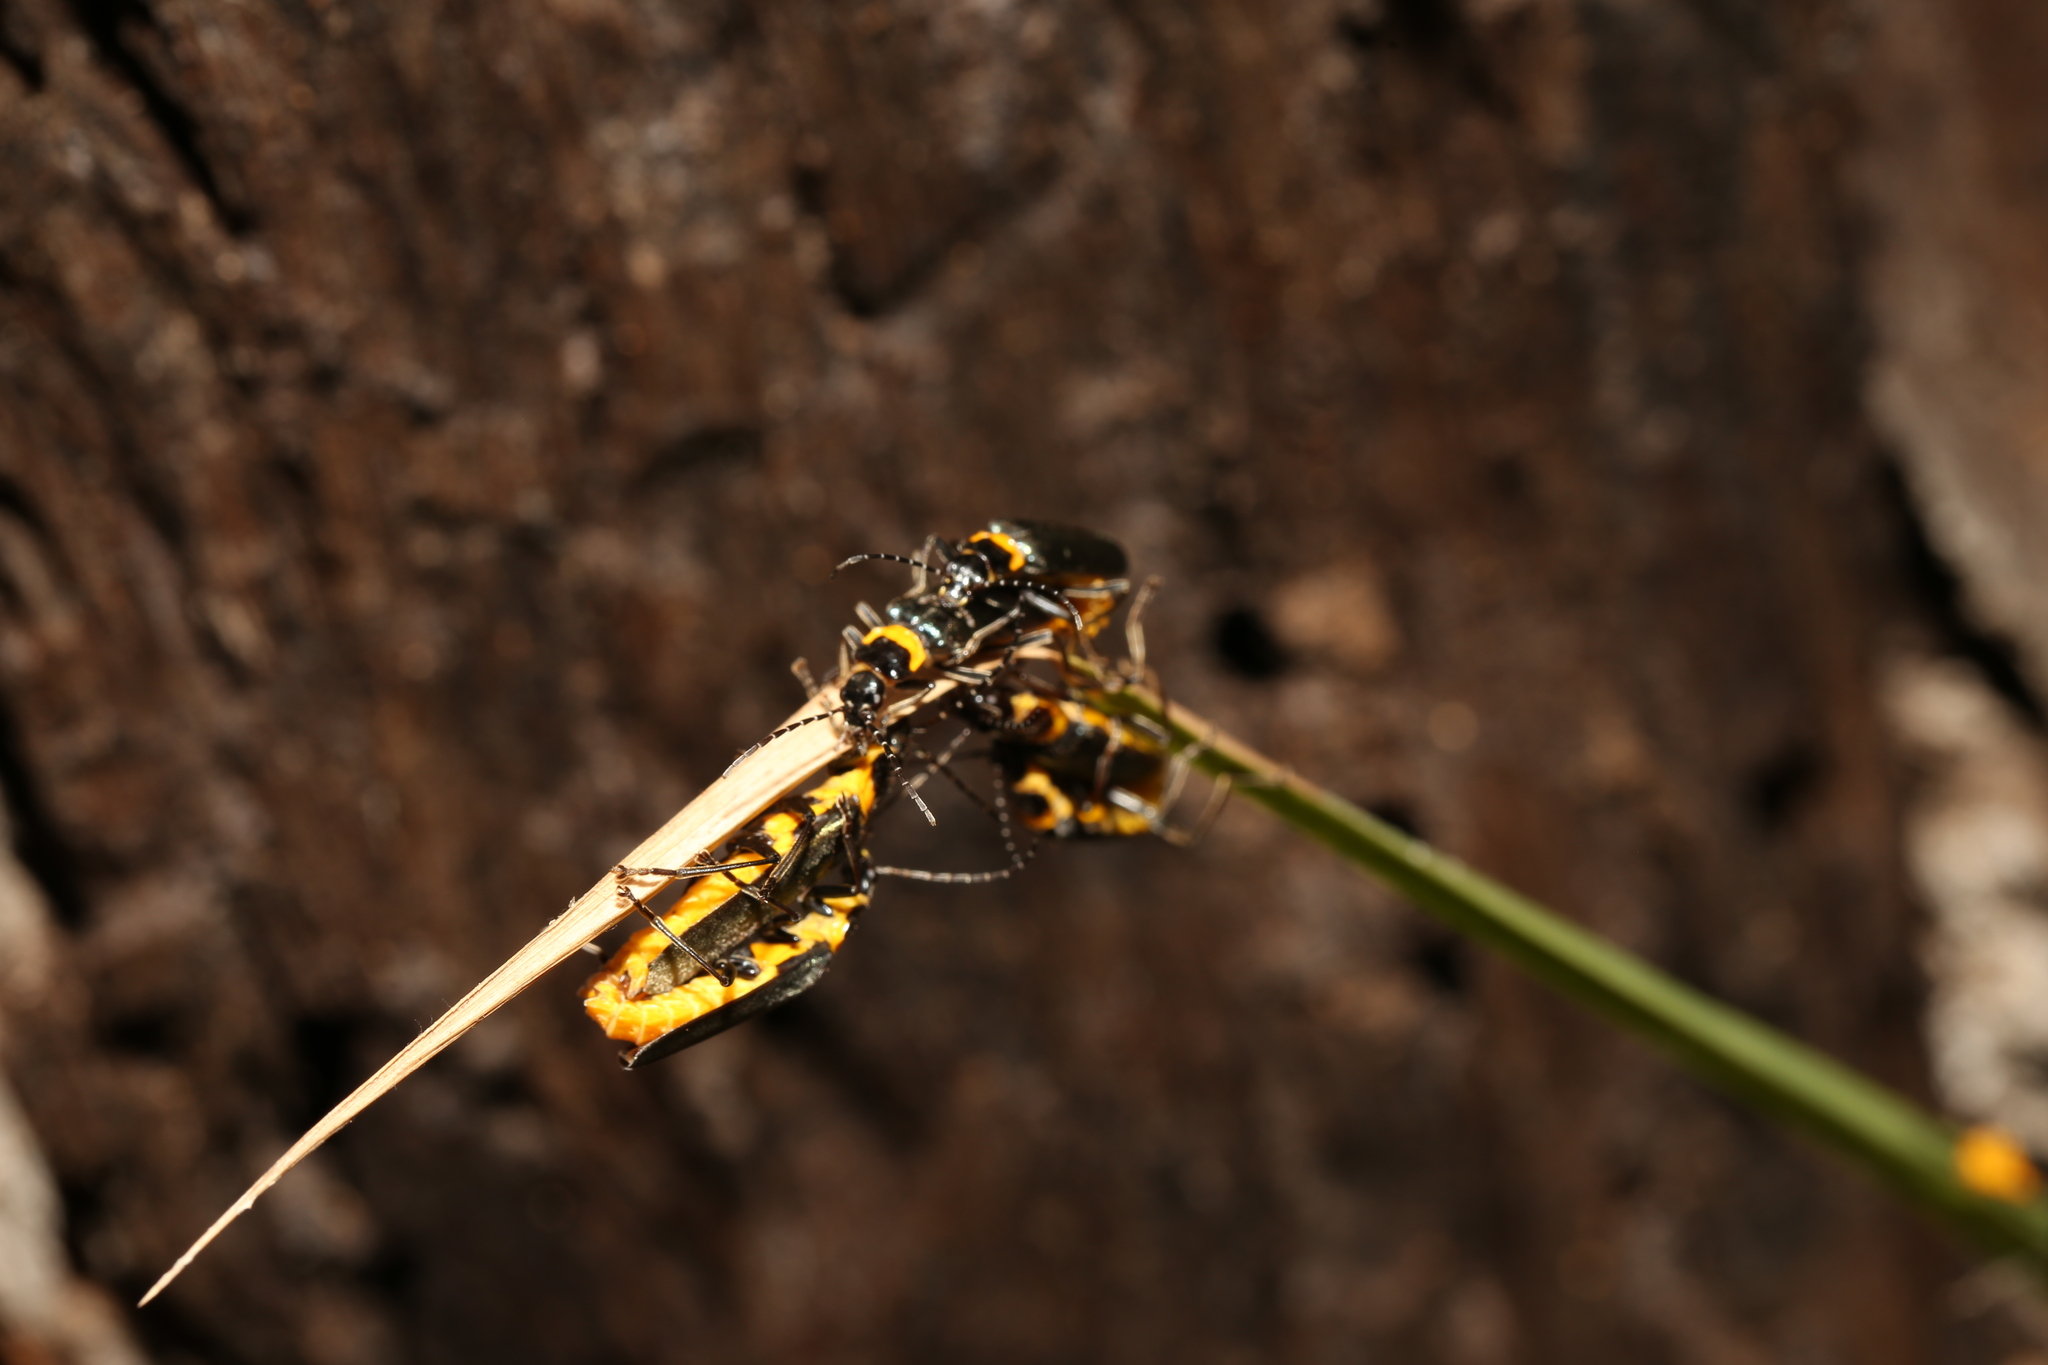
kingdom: Animalia
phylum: Arthropoda
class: Insecta
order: Coleoptera
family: Cantharidae
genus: Chauliognathus
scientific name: Chauliognathus
